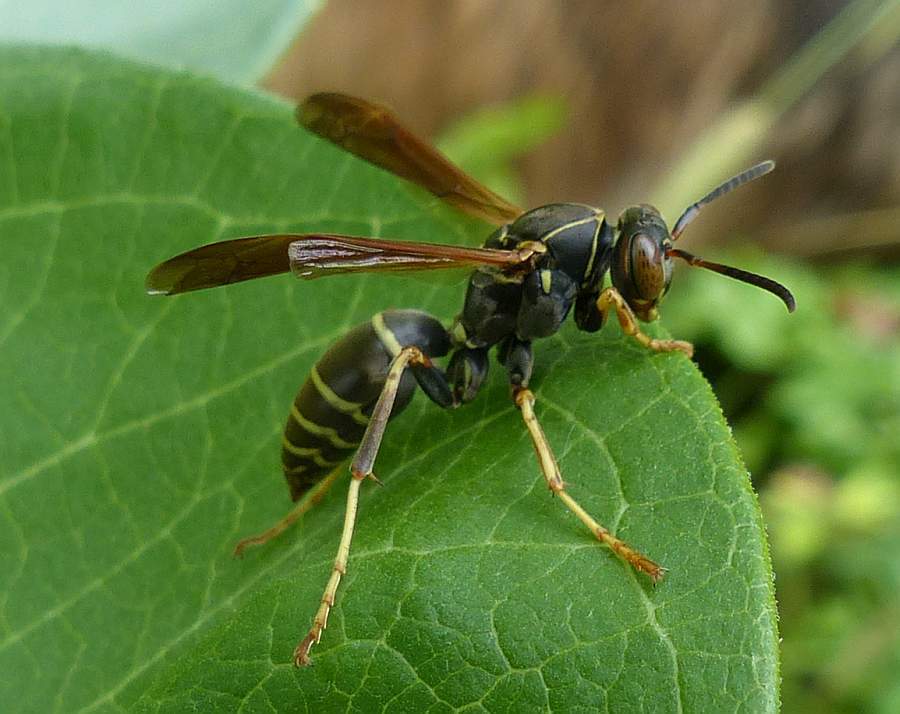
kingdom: Animalia
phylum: Arthropoda
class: Insecta
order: Hymenoptera
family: Eumenidae
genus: Polistes
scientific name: Polistes fuscatus
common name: Dark paper wasp
